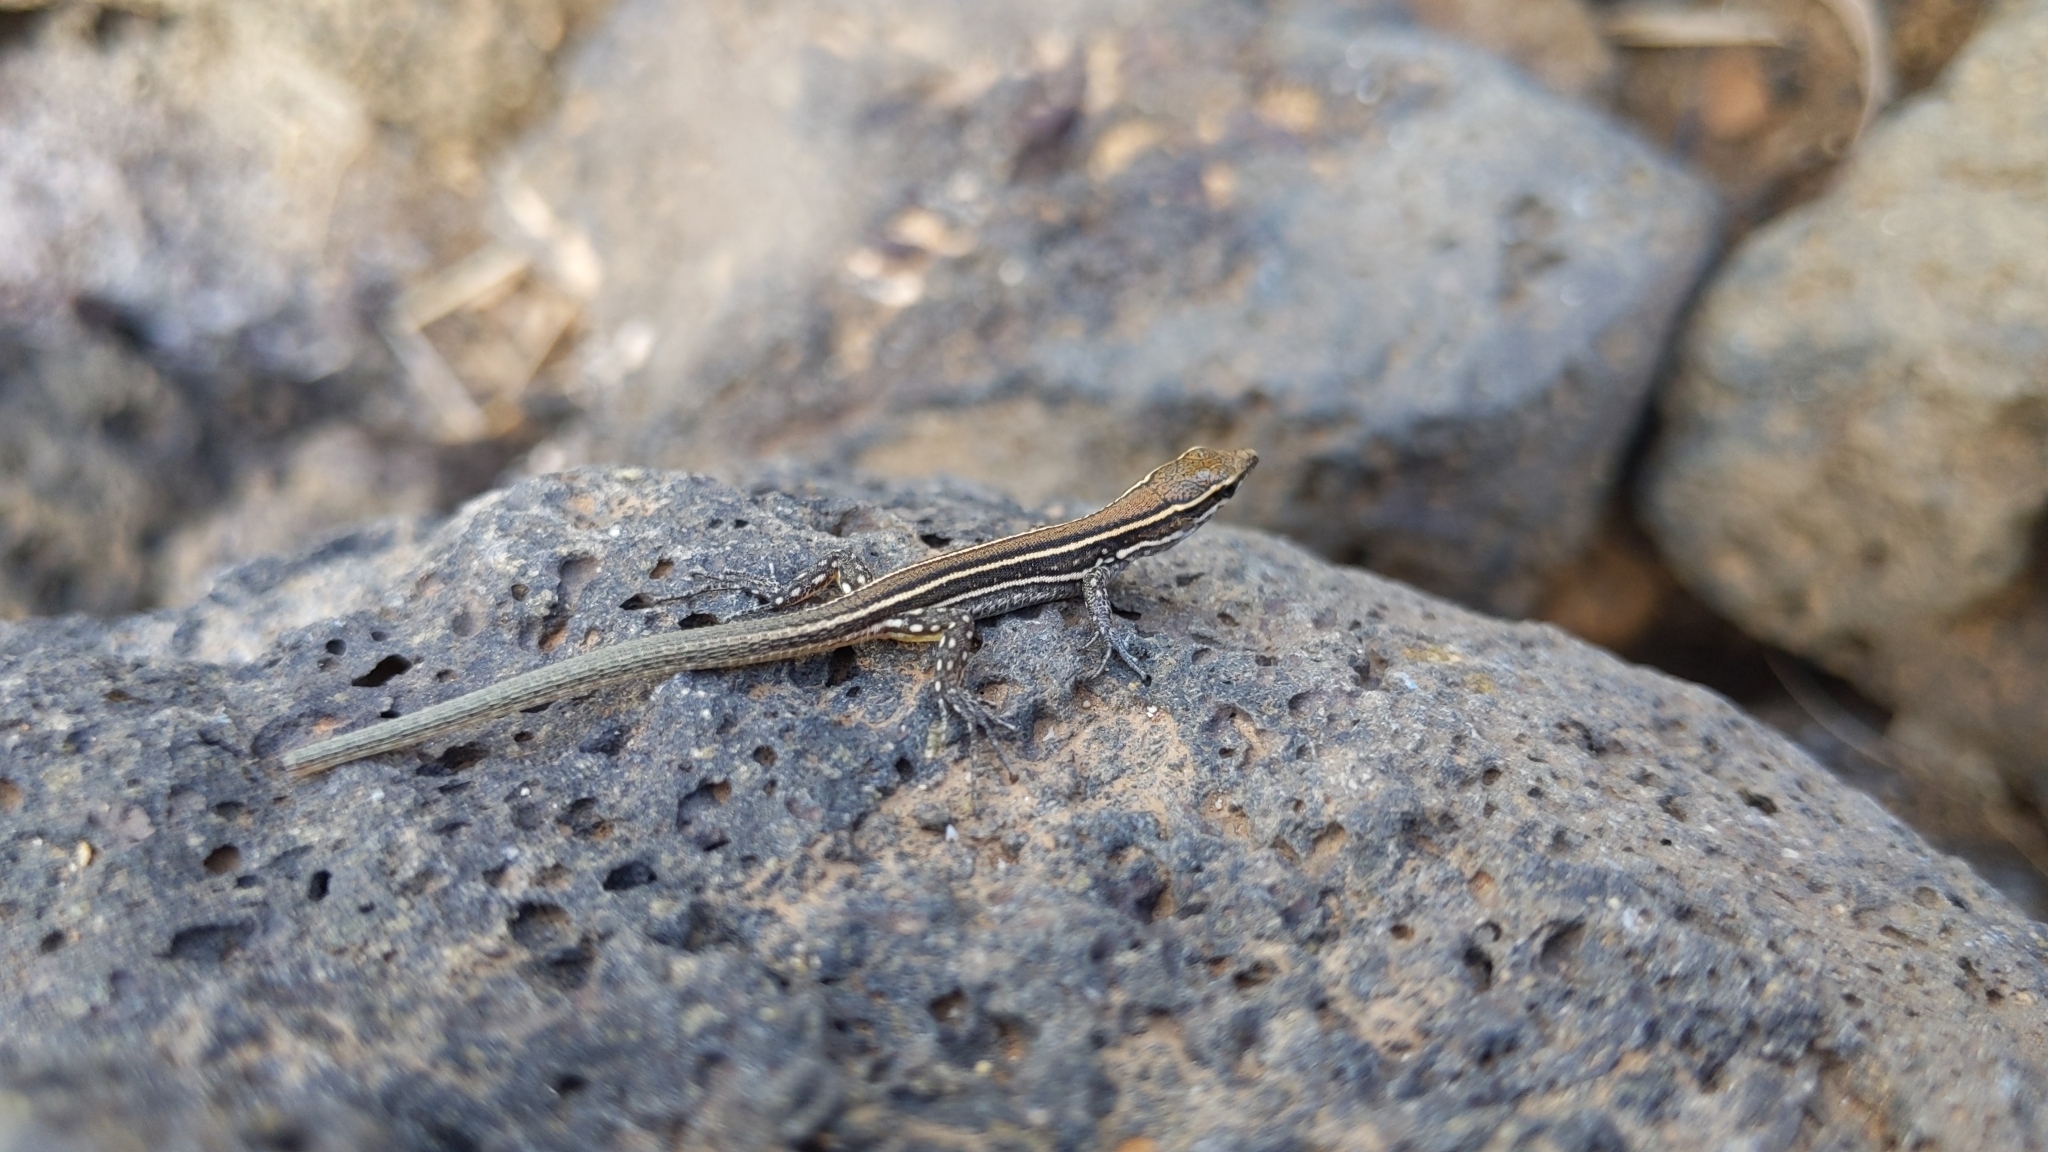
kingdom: Animalia
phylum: Chordata
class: Squamata
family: Lacertidae
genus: Gallotia
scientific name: Gallotia atlantica
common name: Atlantic lizard
